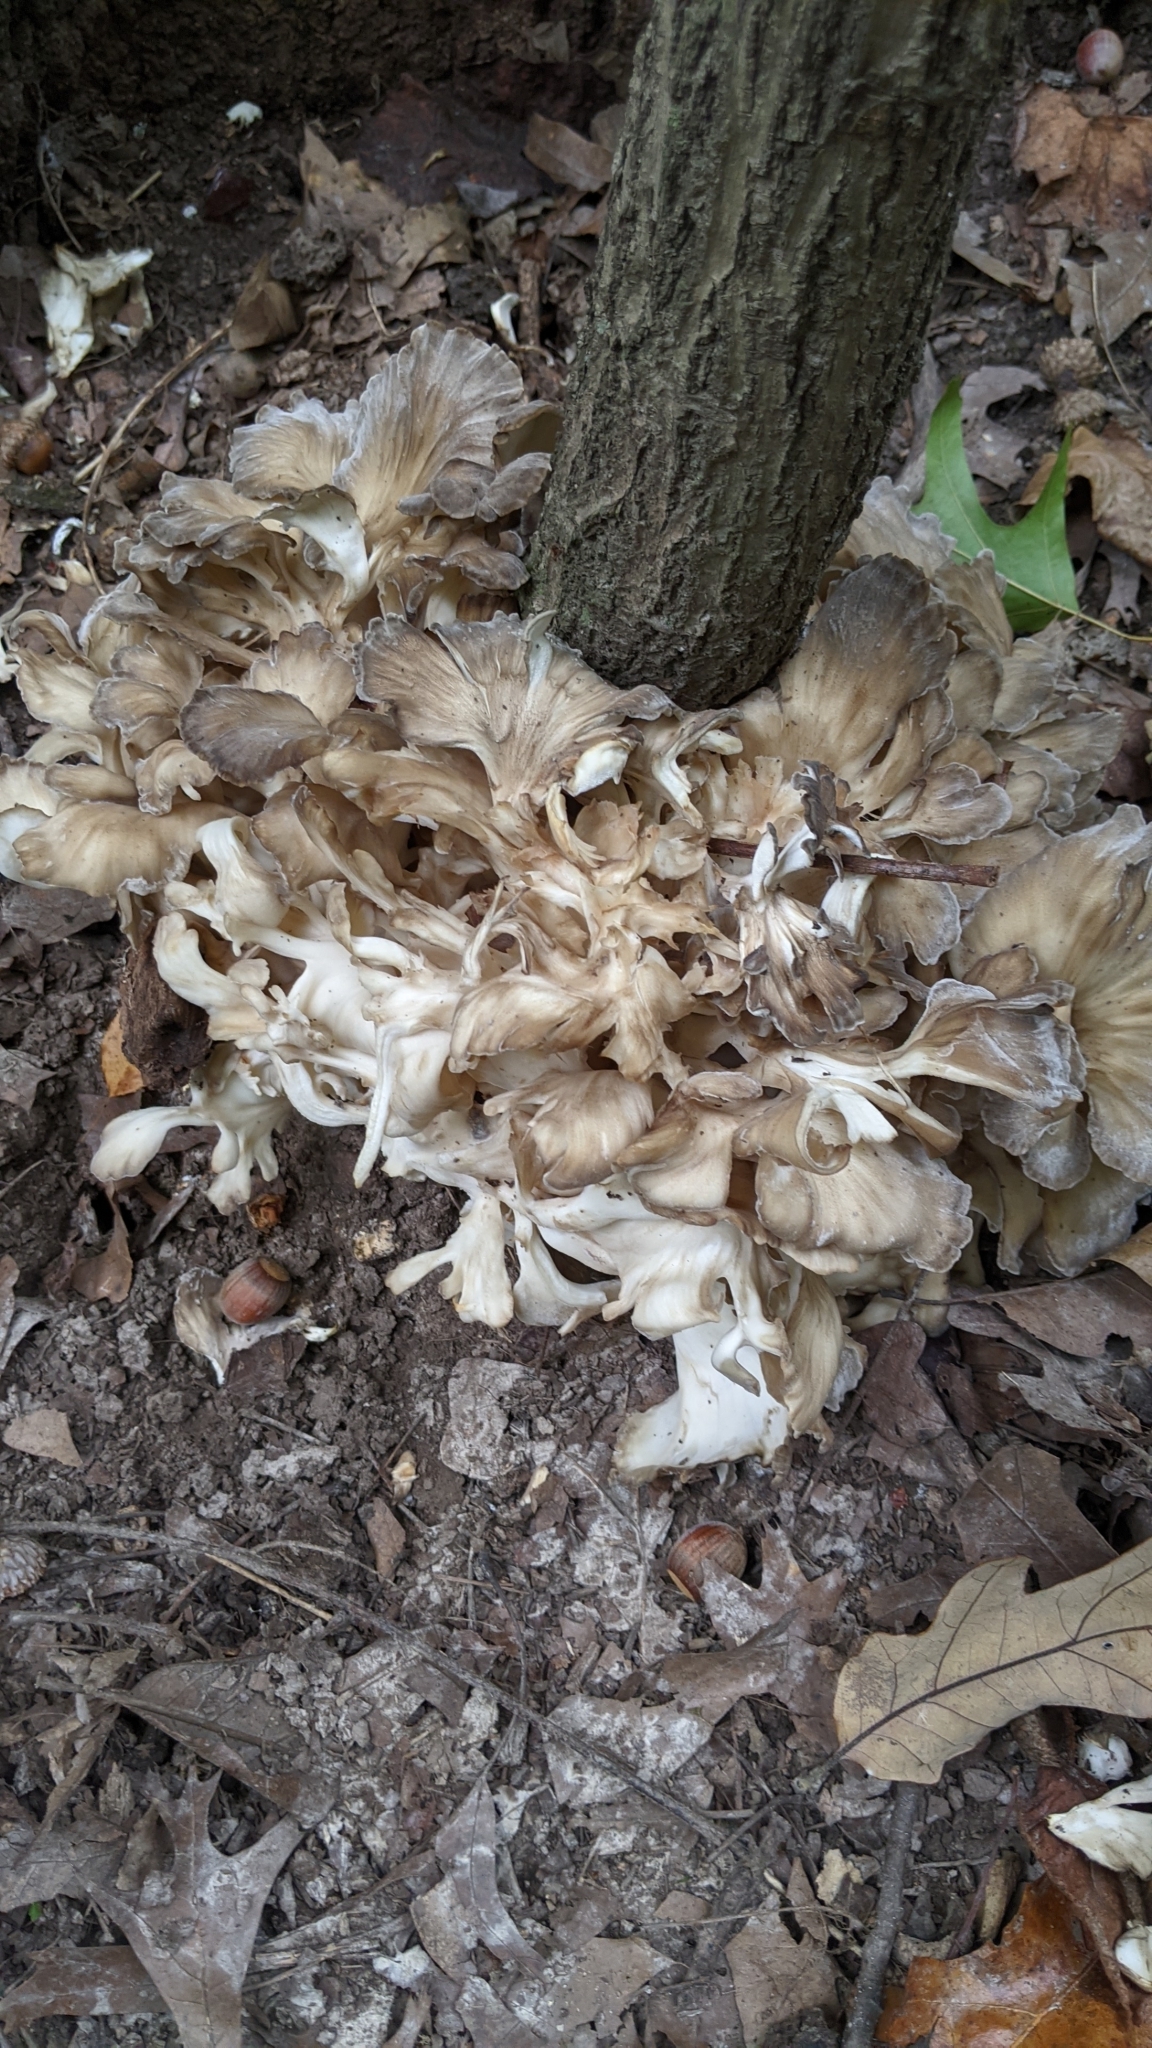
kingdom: Fungi
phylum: Basidiomycota
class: Agaricomycetes
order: Polyporales
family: Grifolaceae
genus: Grifola
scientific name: Grifola frondosa
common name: Hen of the woods
